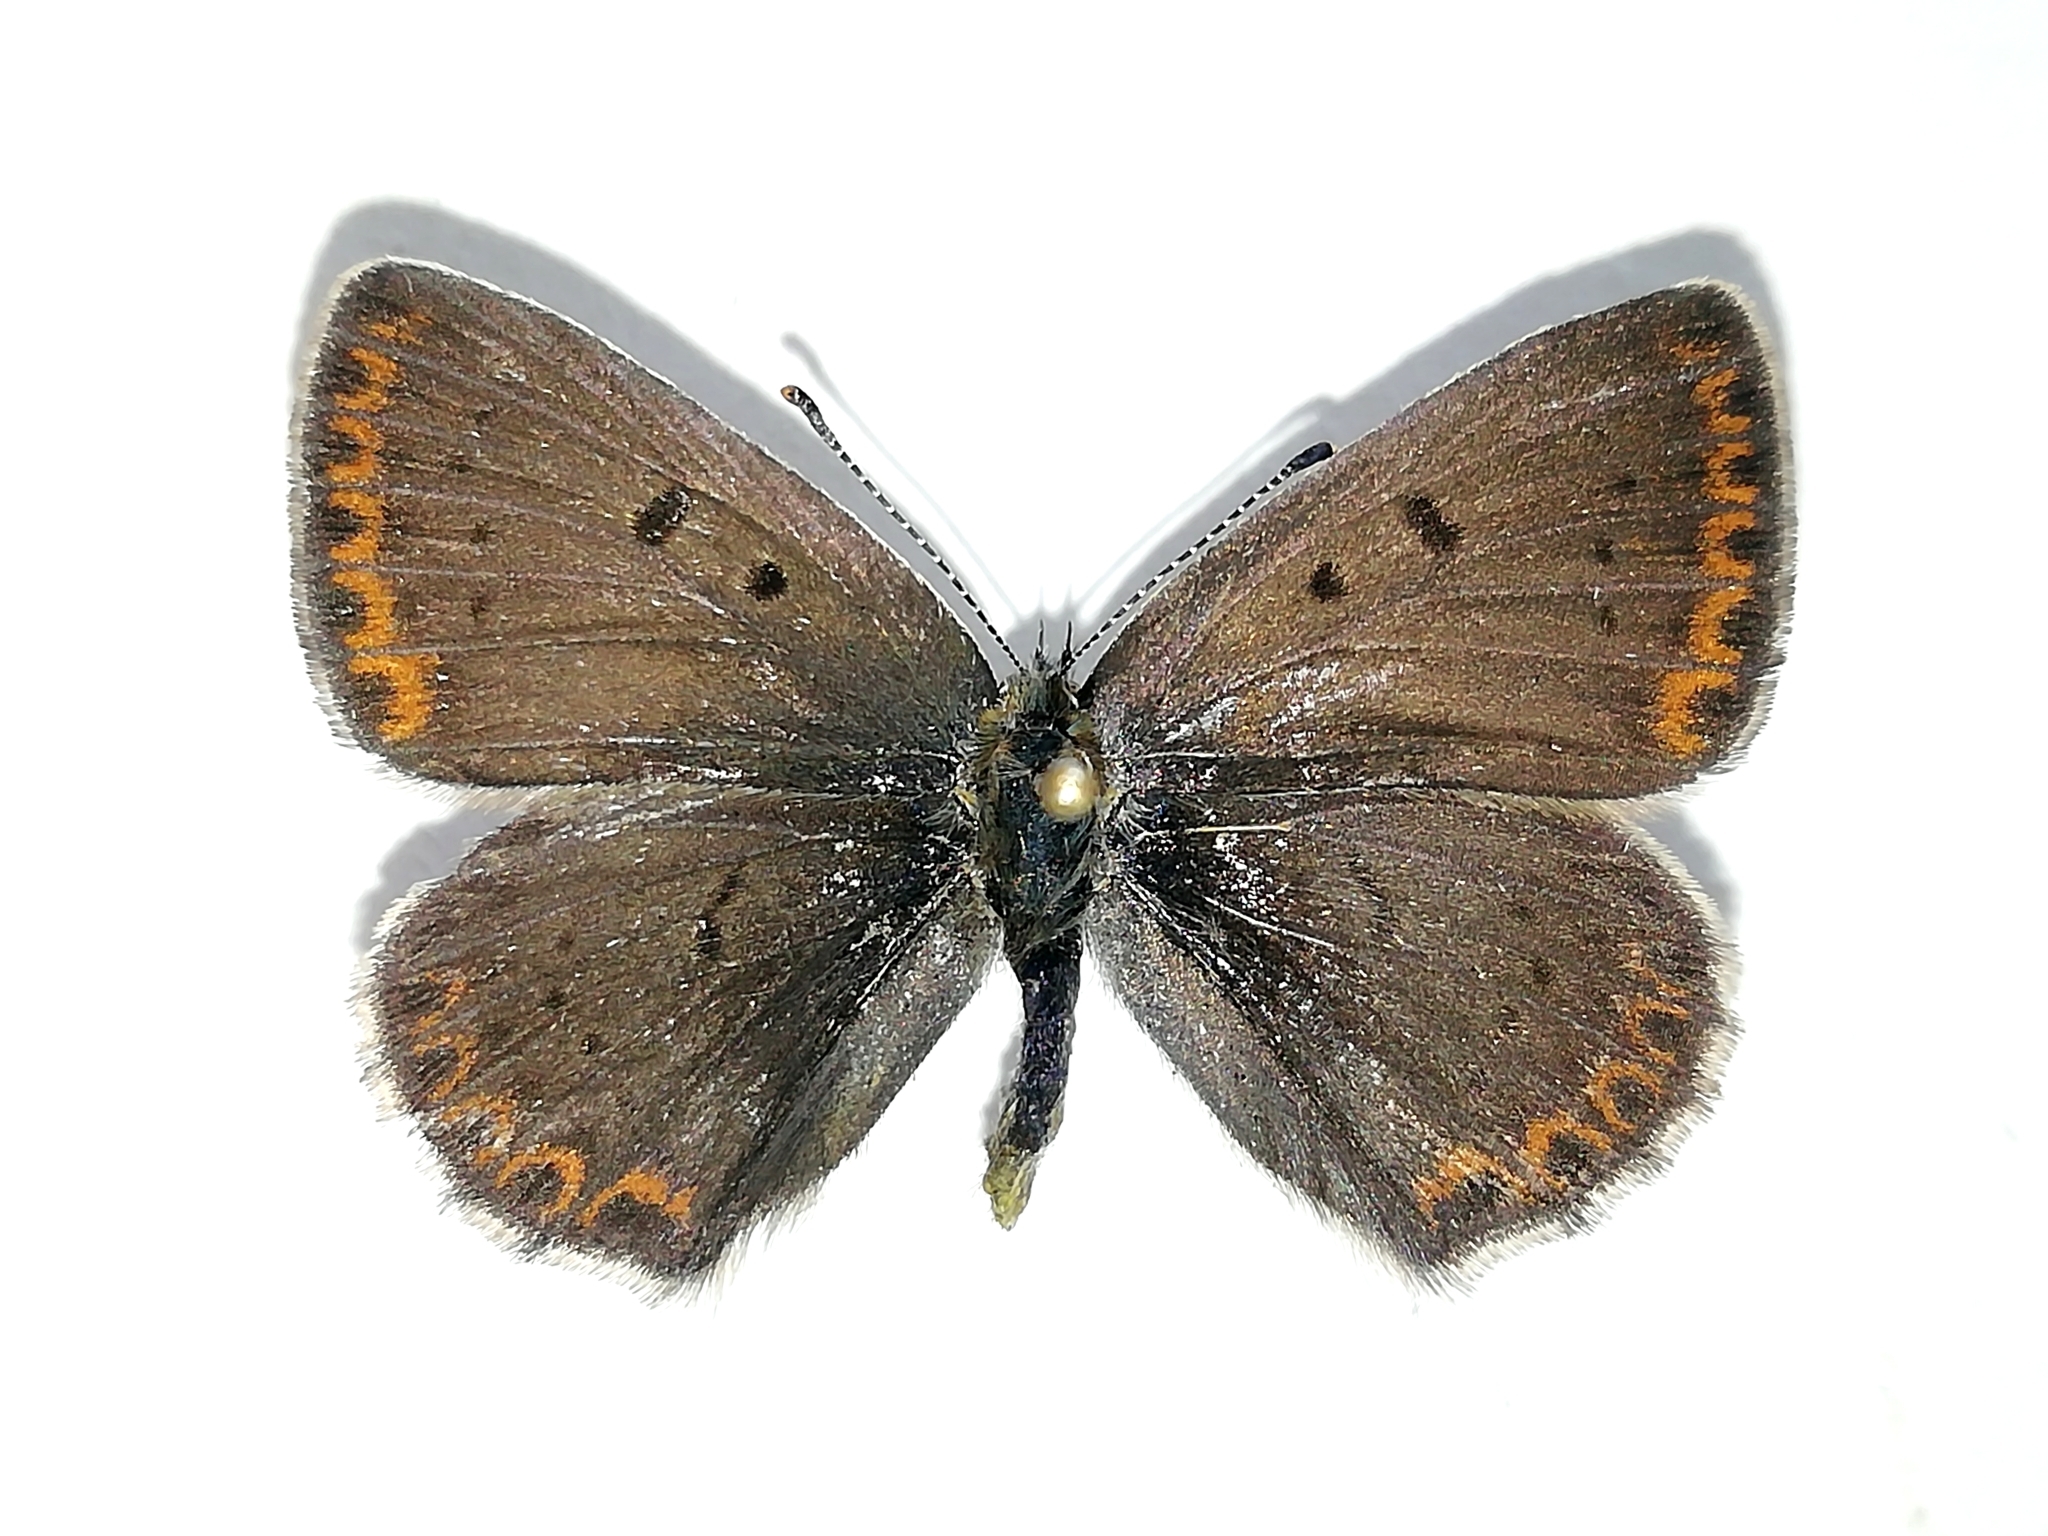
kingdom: Animalia
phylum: Arthropoda
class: Insecta
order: Lepidoptera
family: Lycaenidae
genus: Loweia
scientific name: Loweia tityrus
